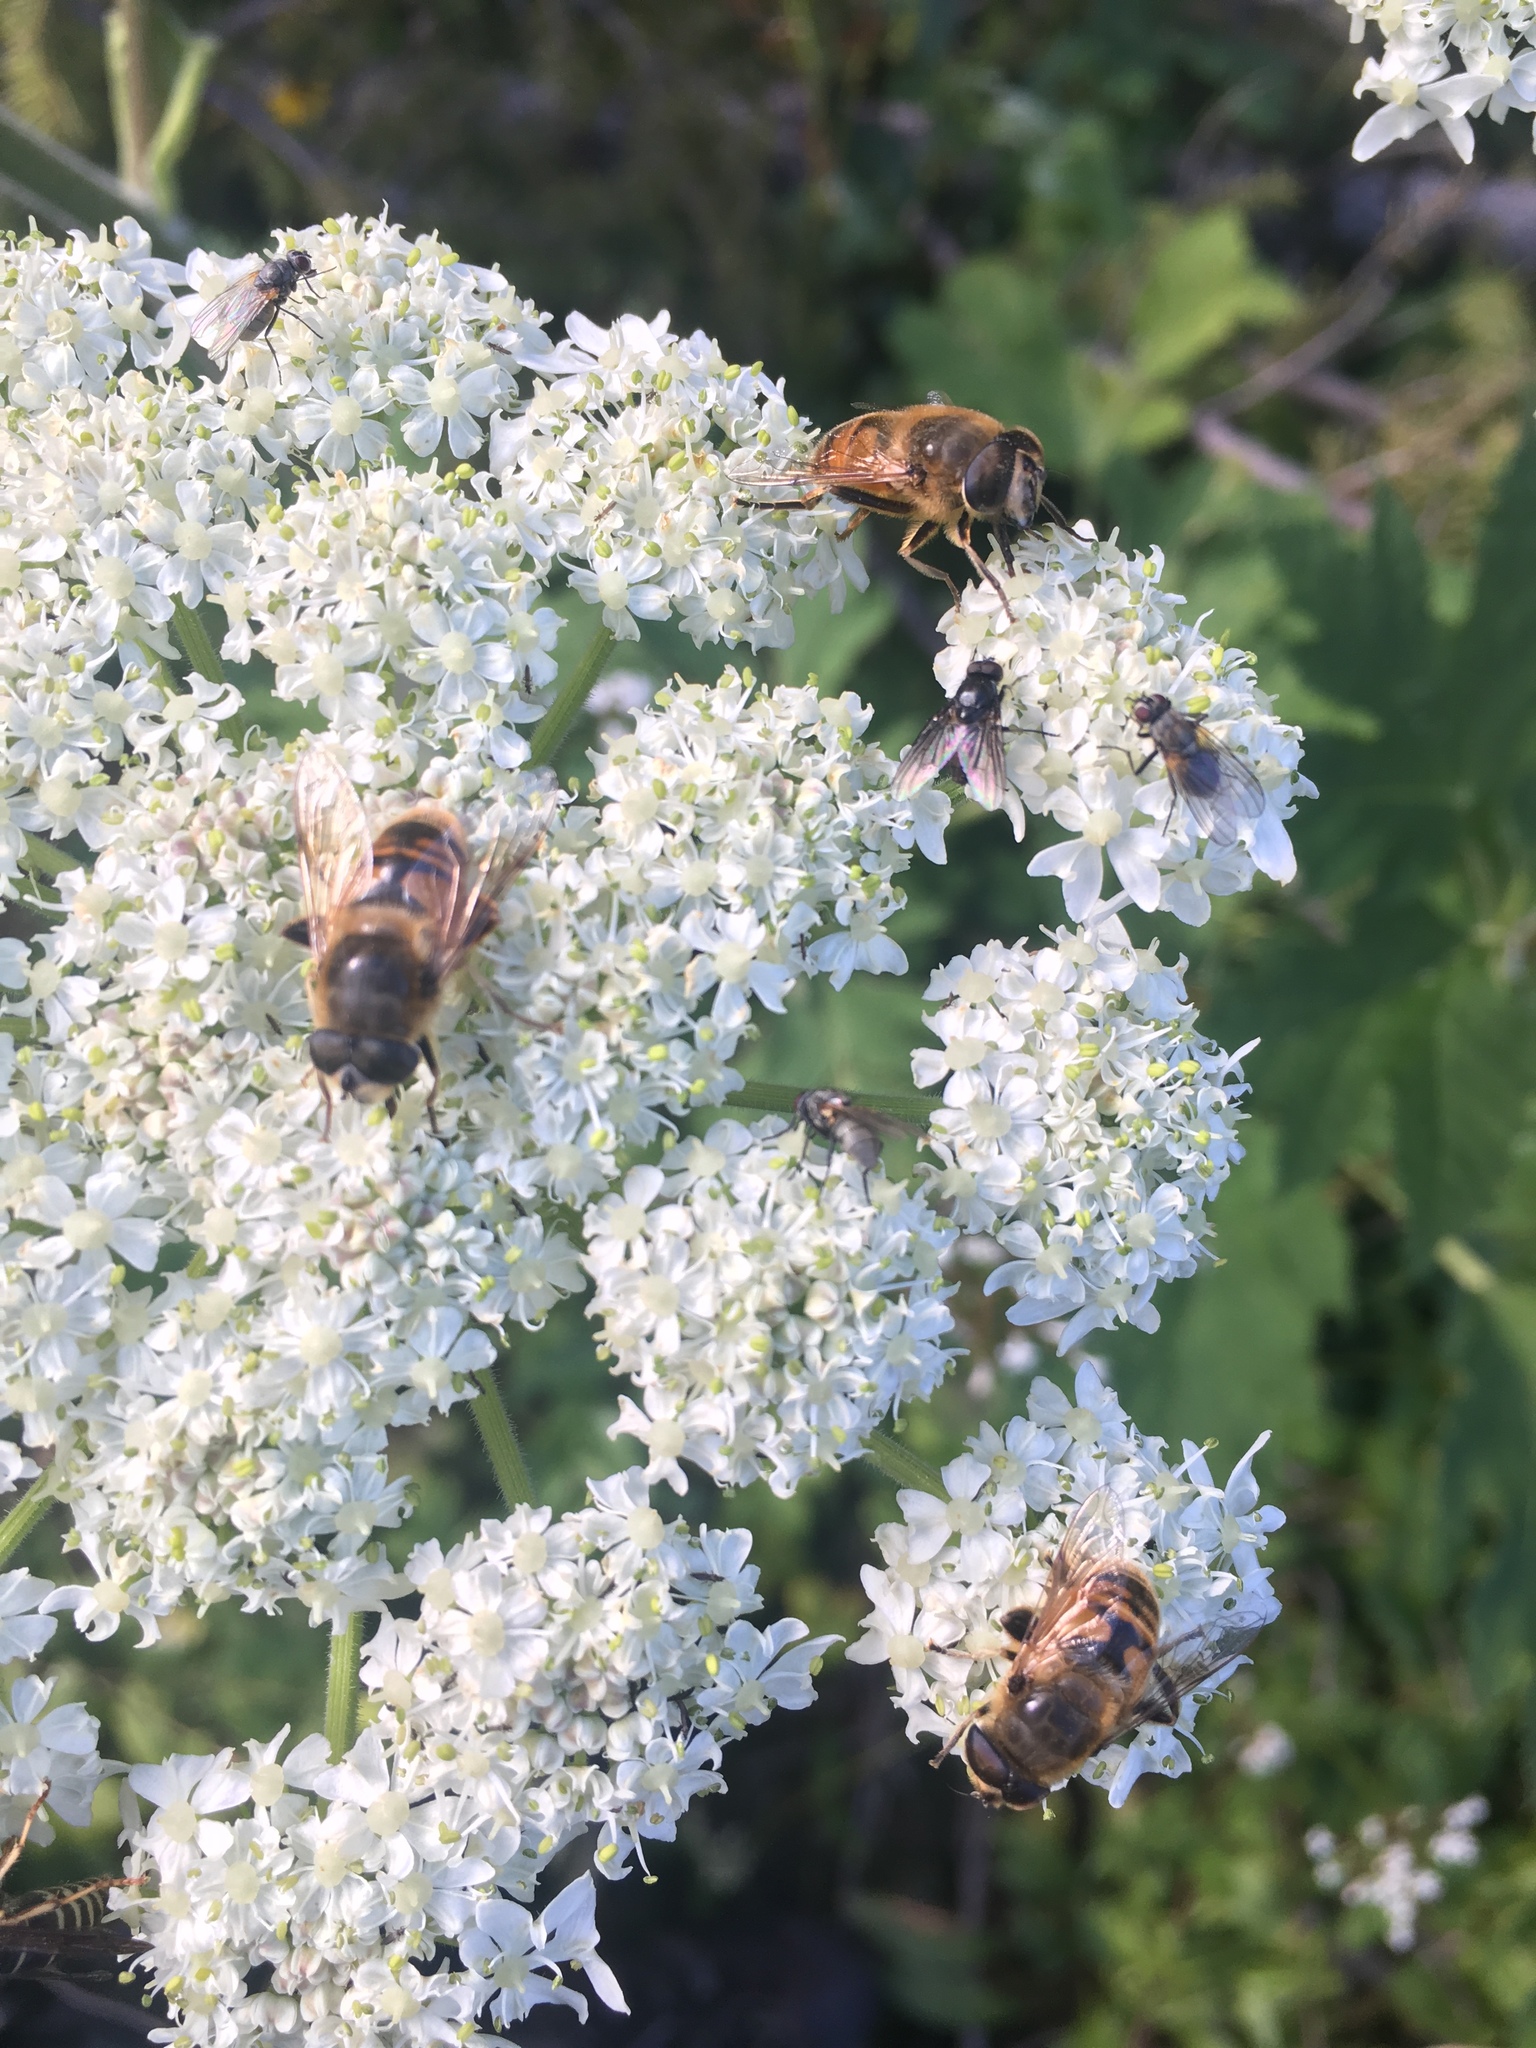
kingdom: Animalia
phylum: Arthropoda
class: Insecta
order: Diptera
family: Syrphidae
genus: Eristalis
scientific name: Eristalis tenax
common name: Drone fly
